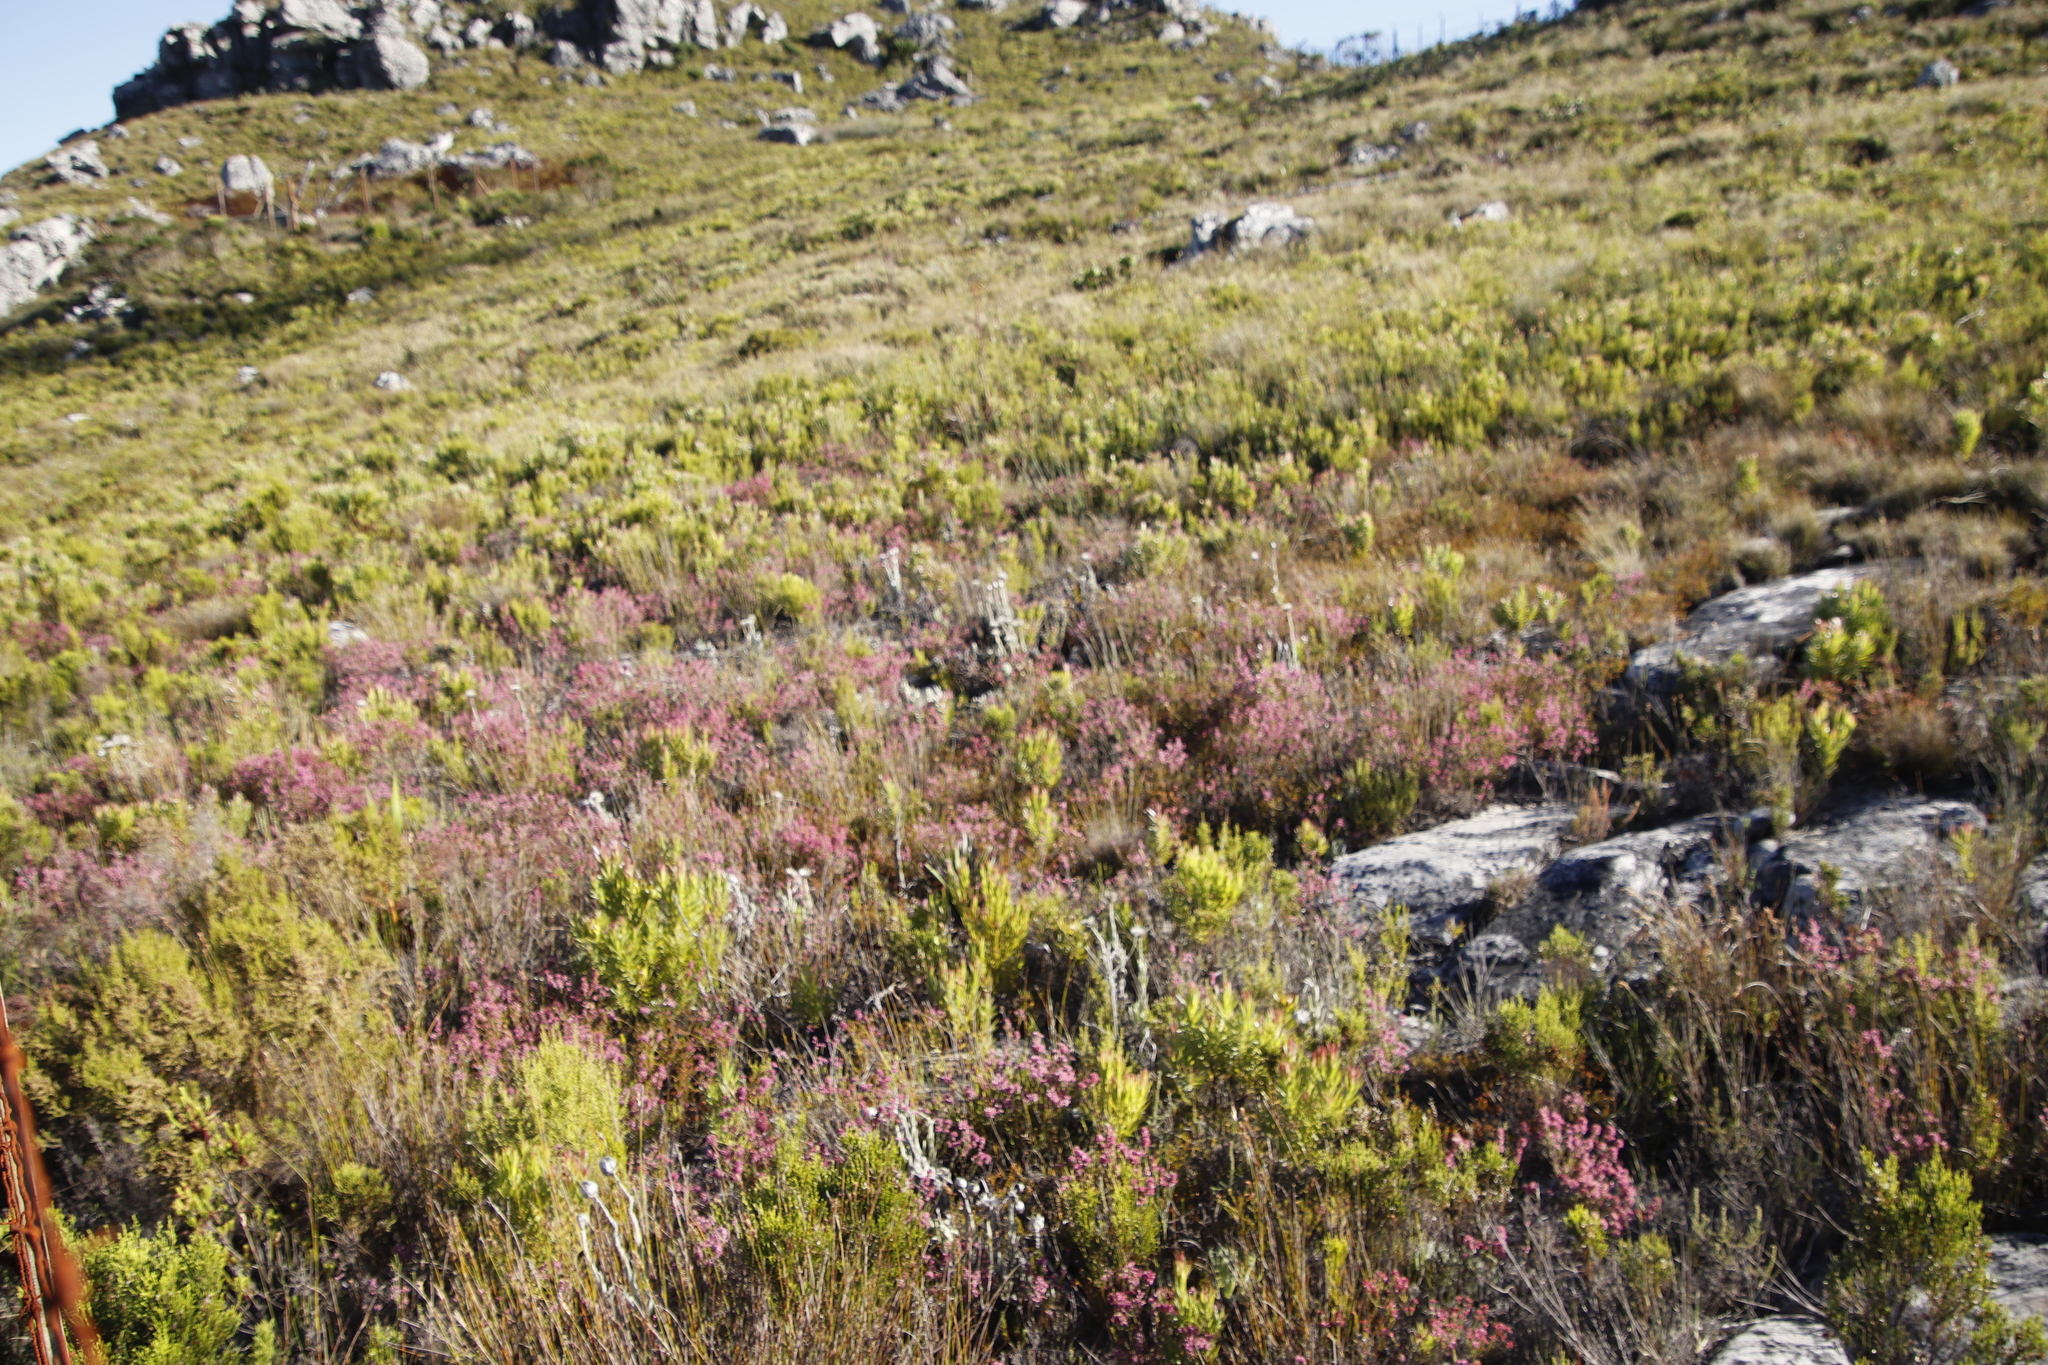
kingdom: Plantae
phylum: Tracheophyta
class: Magnoliopsida
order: Ericales
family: Ericaceae
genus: Erica
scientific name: Erica corifolia
